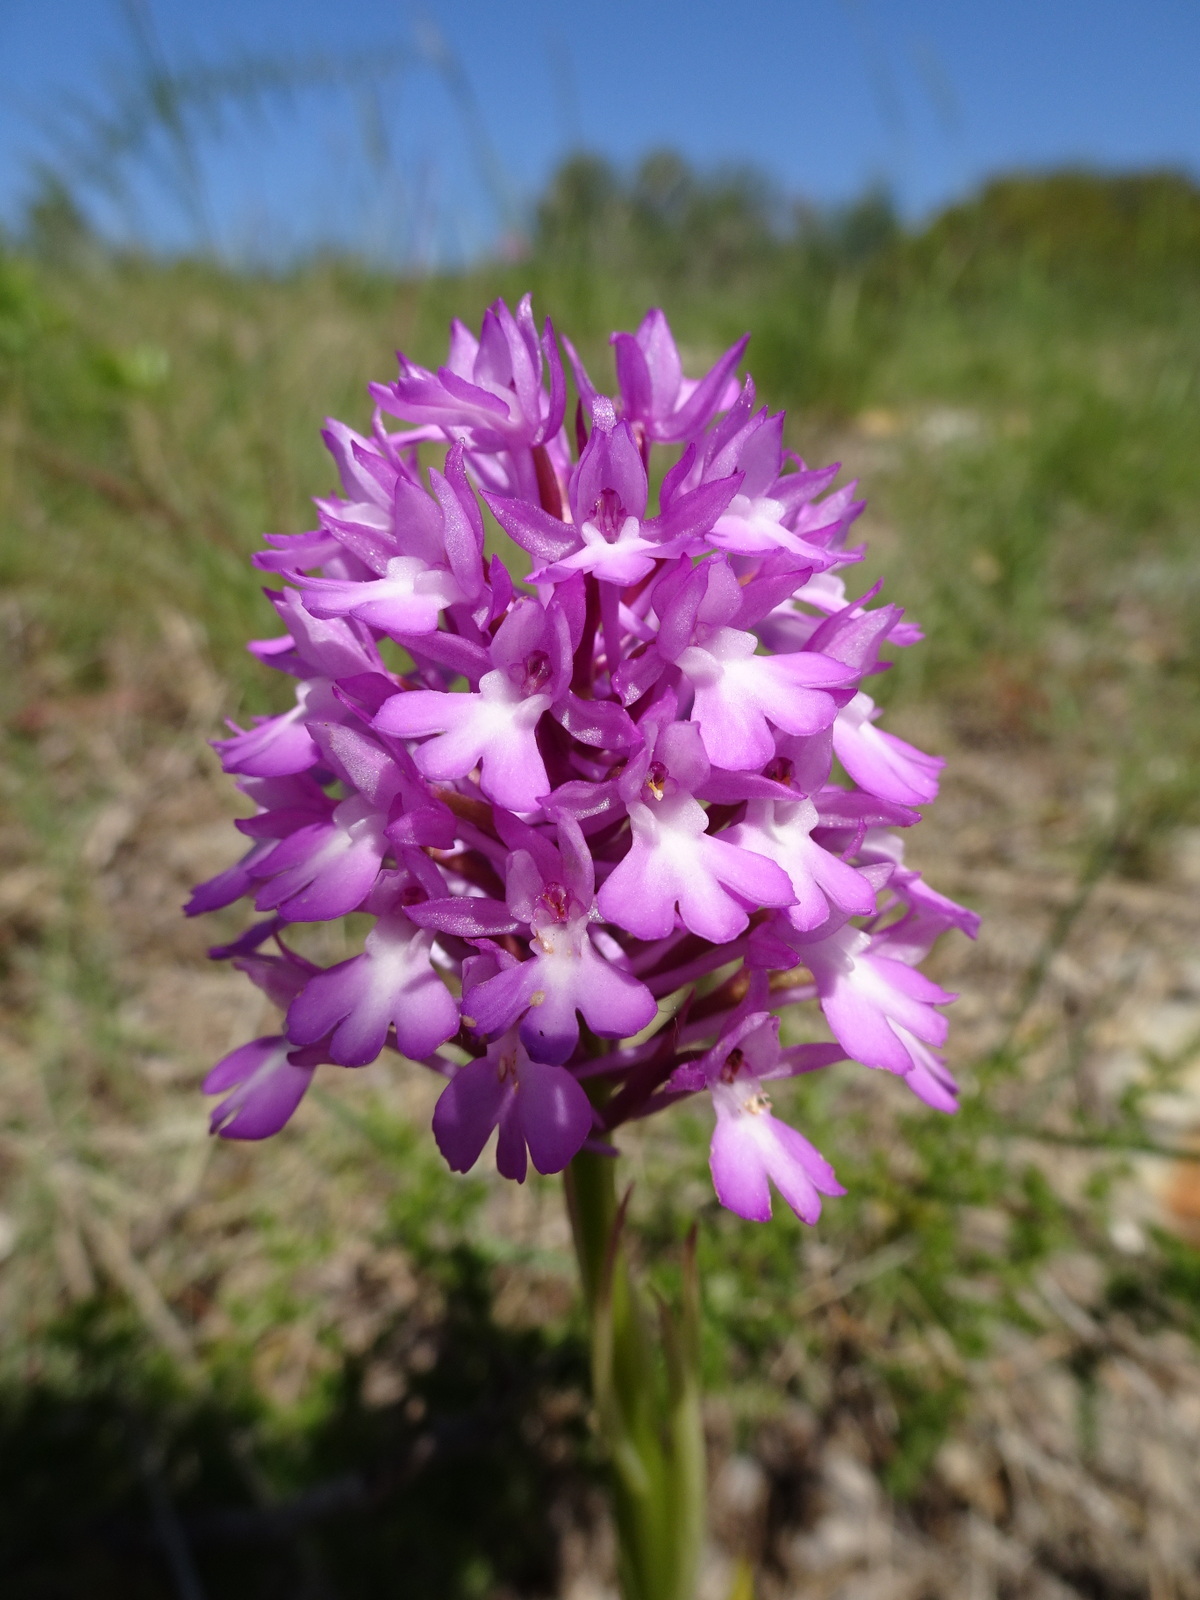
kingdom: Plantae
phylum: Tracheophyta
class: Liliopsida
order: Asparagales
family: Orchidaceae
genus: Anacamptis
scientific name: Anacamptis pyramidalis
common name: Pyramidal orchid
